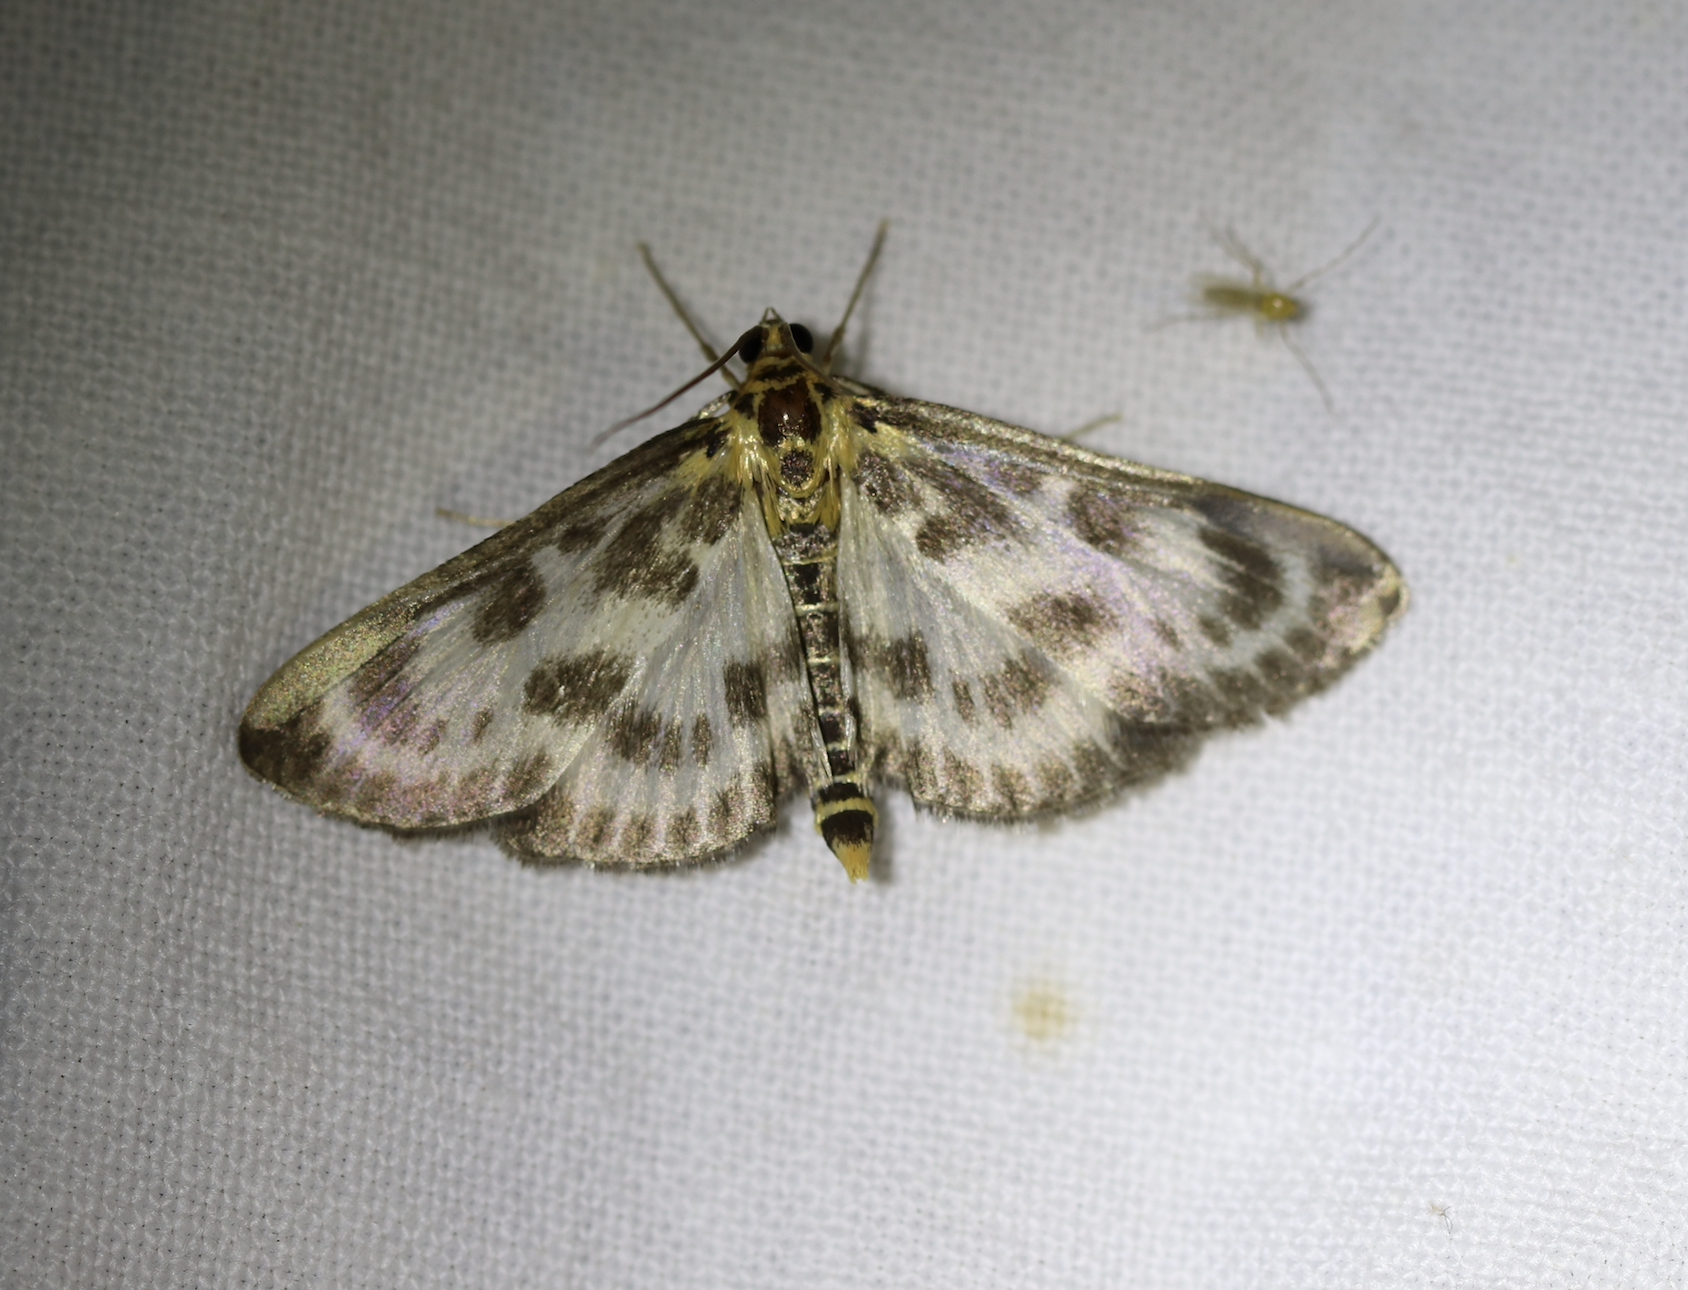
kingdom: Animalia
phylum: Arthropoda
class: Insecta
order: Lepidoptera
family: Crambidae
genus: Anania
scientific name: Anania hortulata
